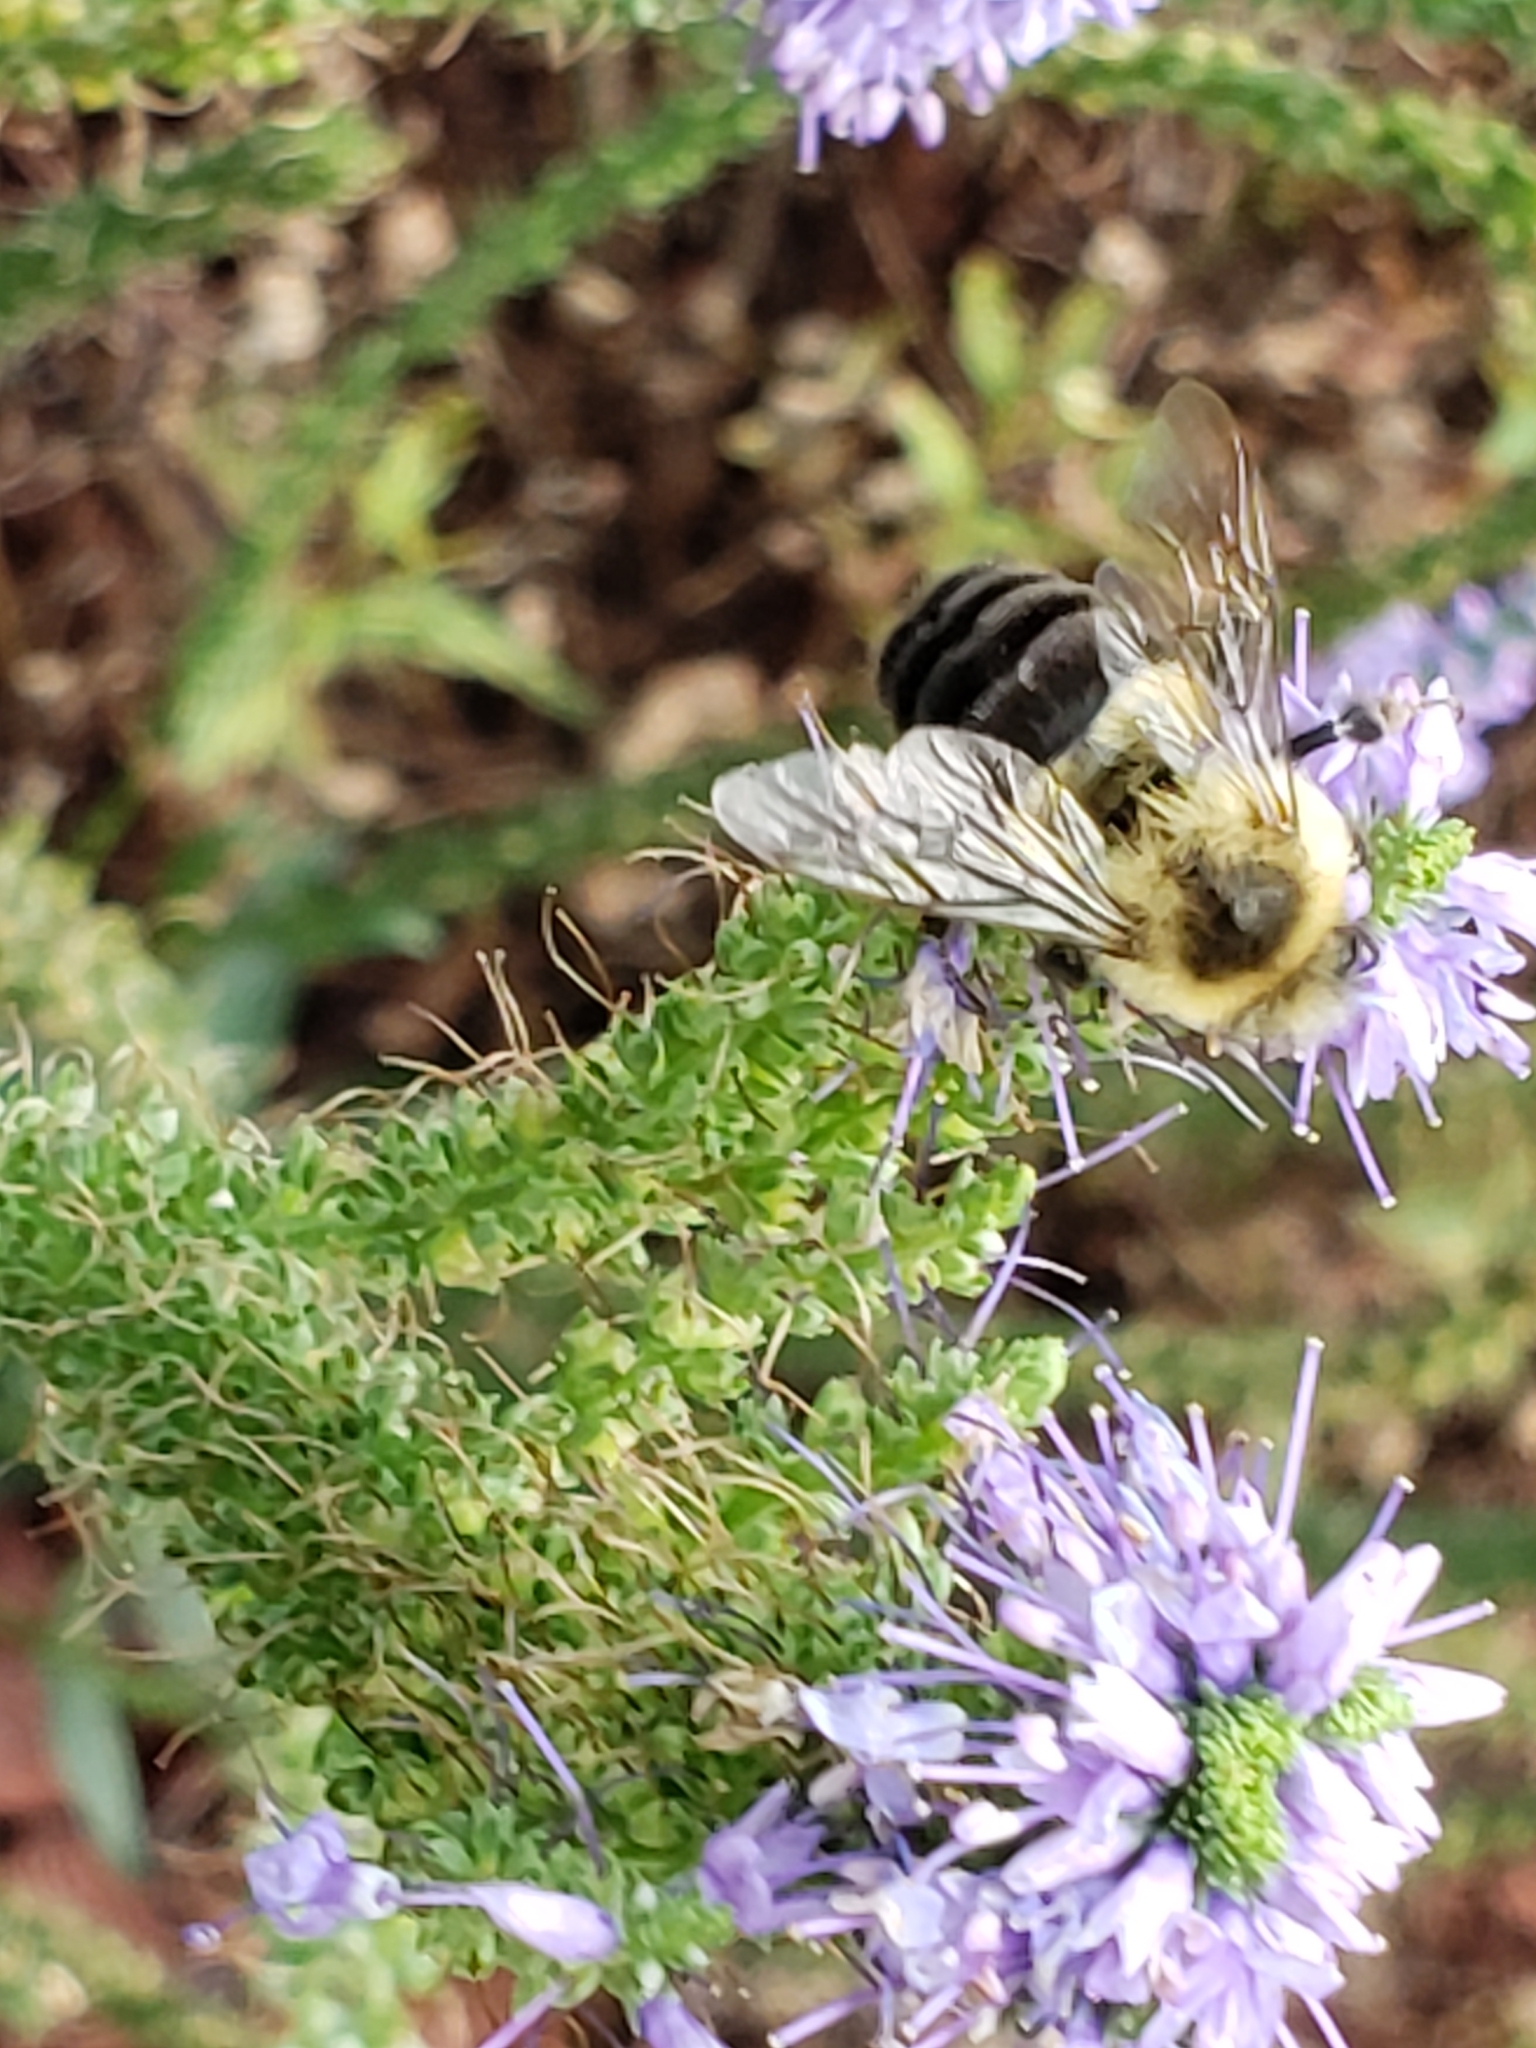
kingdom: Animalia
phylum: Arthropoda
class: Insecta
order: Hymenoptera
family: Apidae
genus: Bombus
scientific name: Bombus impatiens
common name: Common eastern bumble bee
